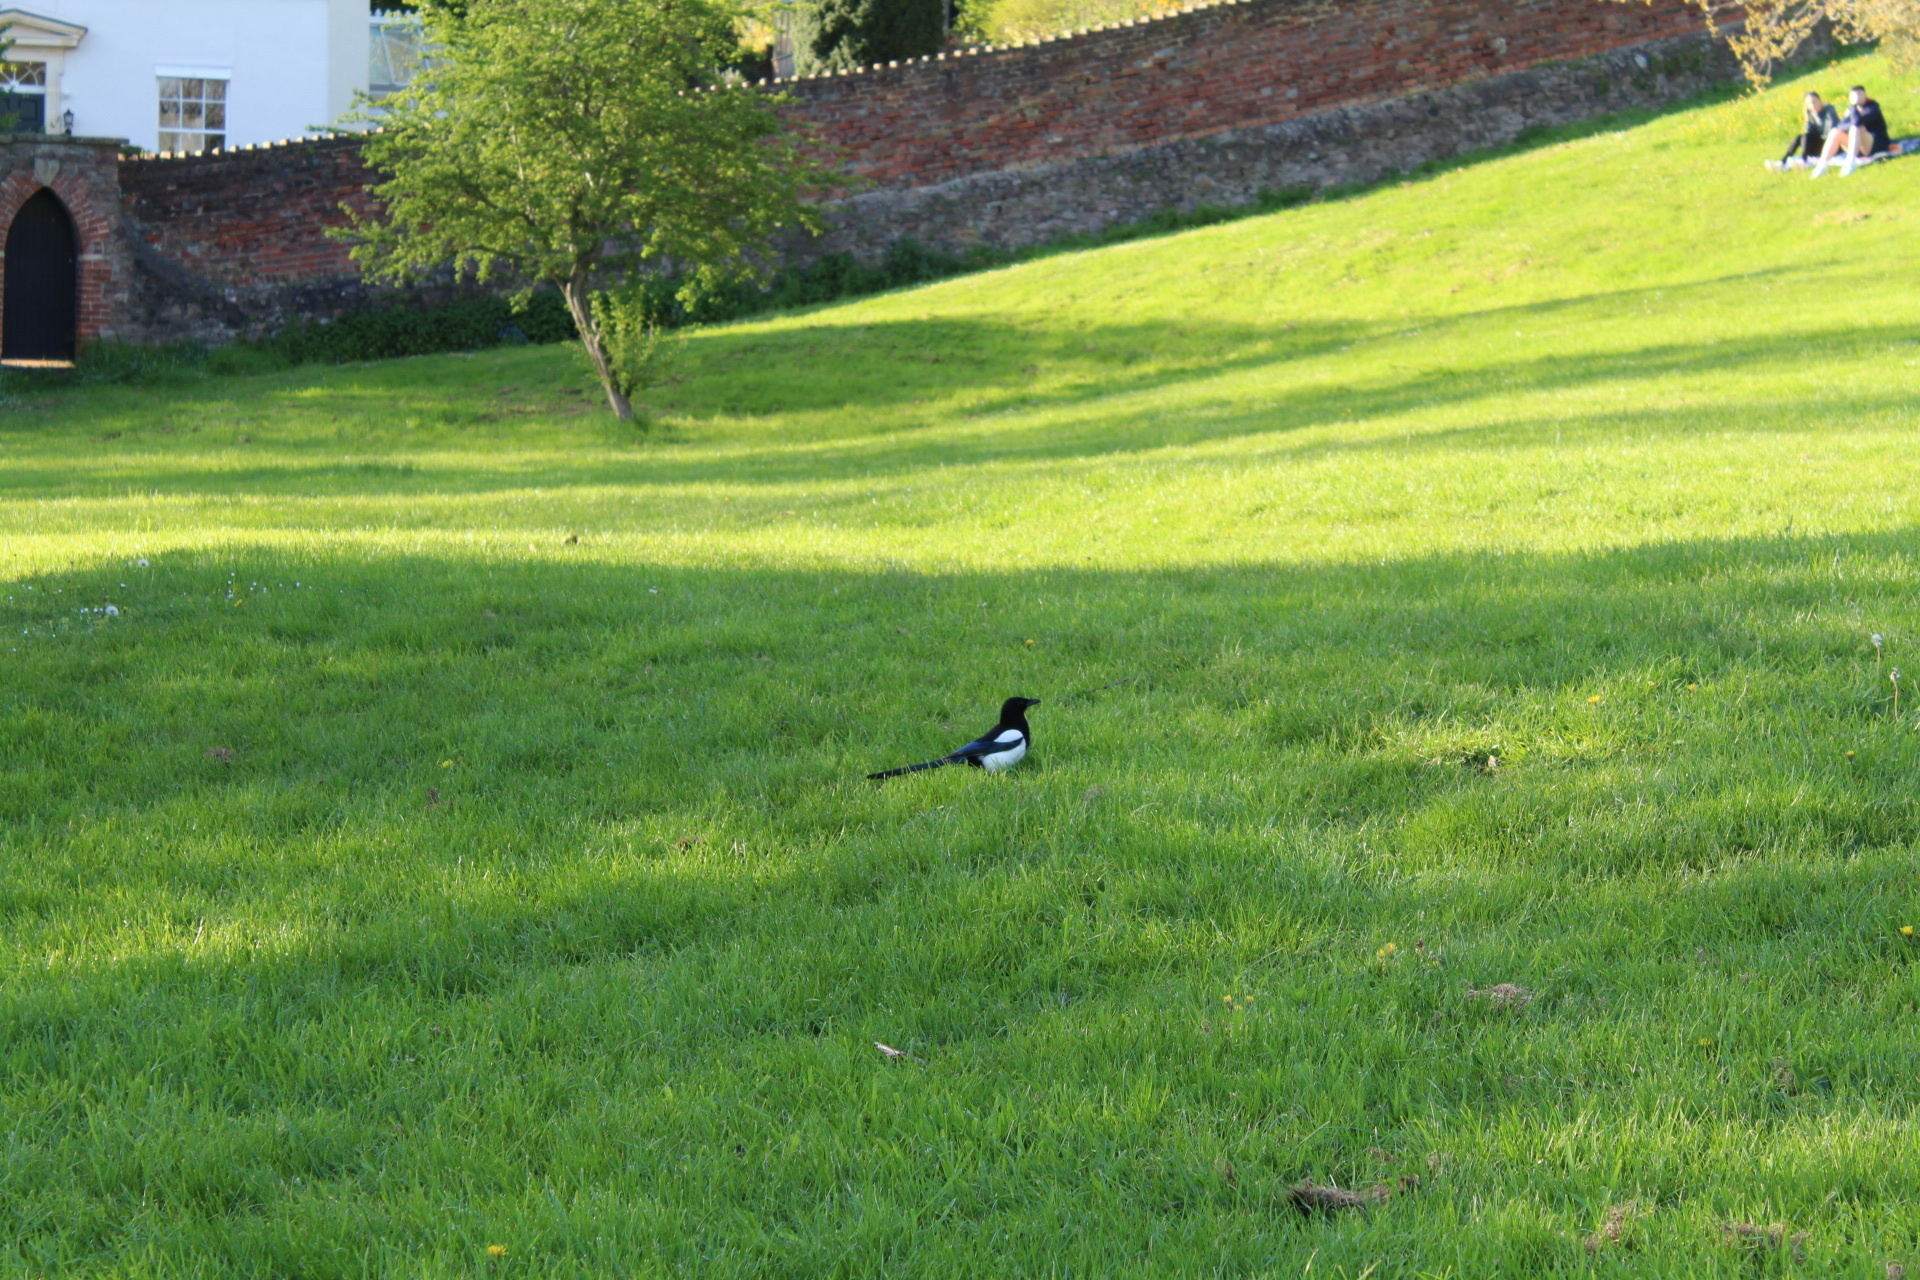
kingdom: Animalia
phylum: Chordata
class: Aves
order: Passeriformes
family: Corvidae
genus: Pica
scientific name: Pica pica
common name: Eurasian magpie
